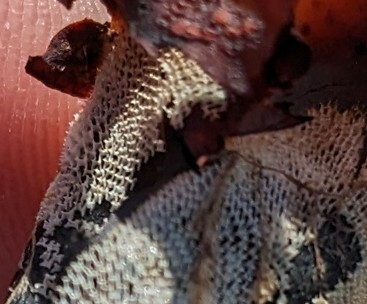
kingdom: Animalia
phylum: Bryozoa
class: Gymnolaemata
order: Cheilostomatida
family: Membraniporidae
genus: Membranipora
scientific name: Membranipora membranacea
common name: Sea mat
